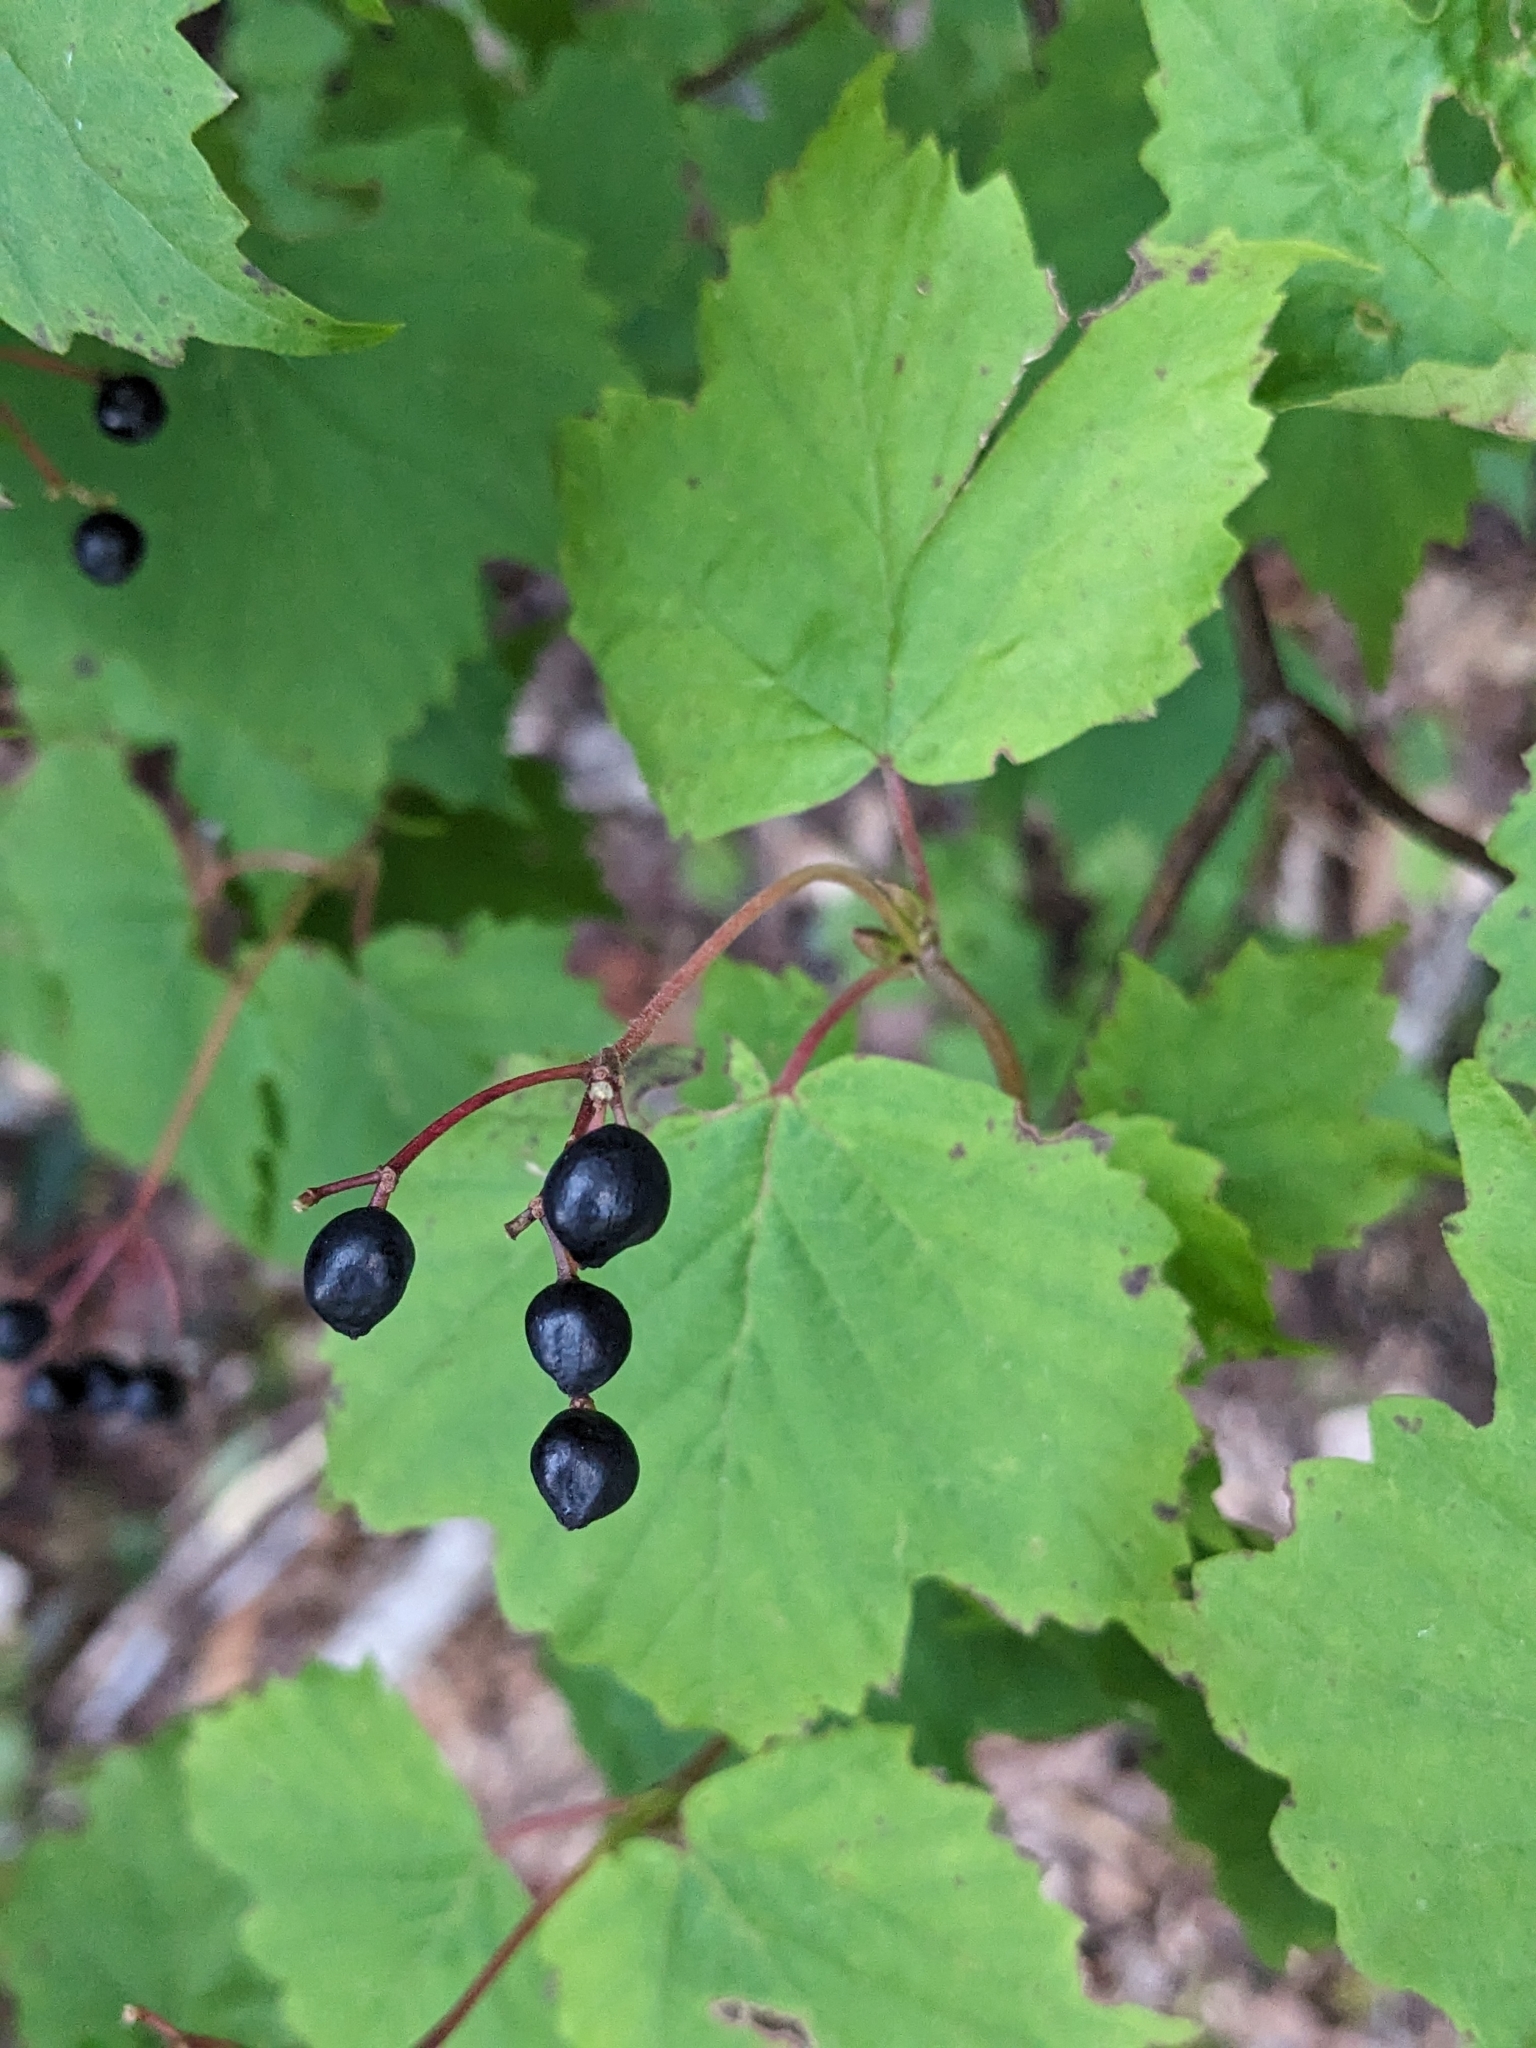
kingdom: Plantae
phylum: Tracheophyta
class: Magnoliopsida
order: Dipsacales
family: Viburnaceae
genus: Viburnum
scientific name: Viburnum acerifolium
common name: Dockmackie
